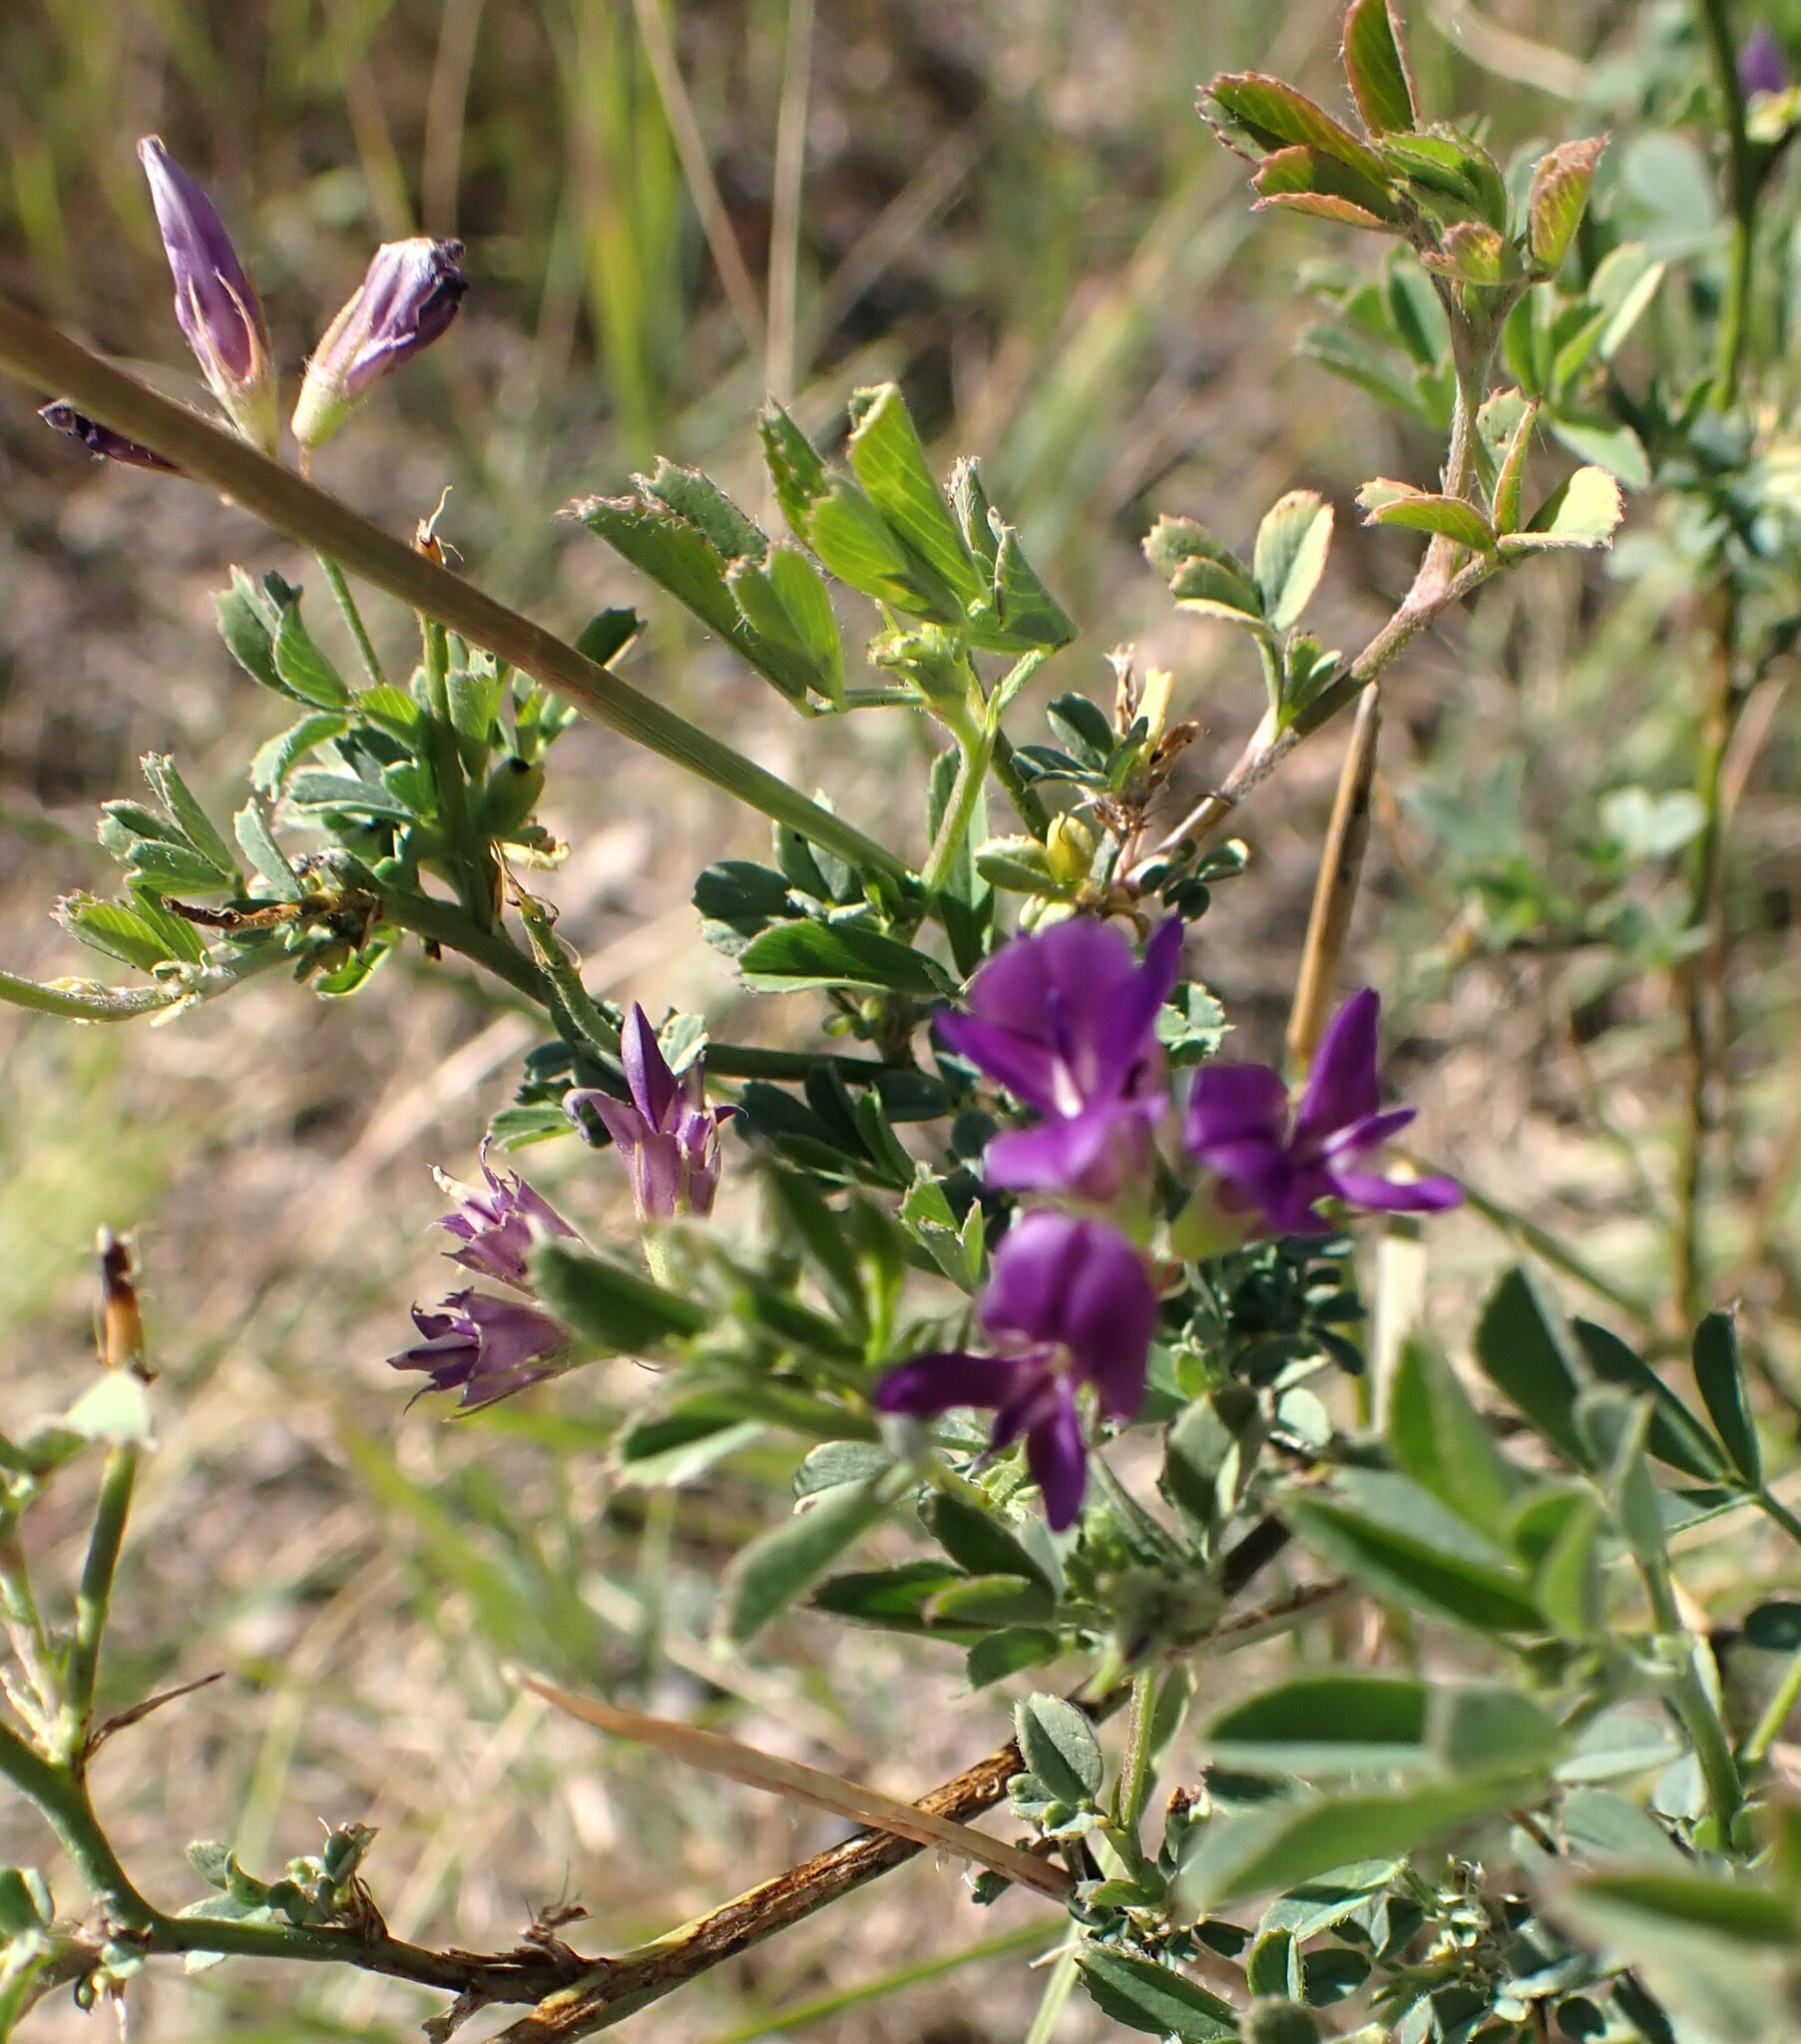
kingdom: Plantae
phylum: Tracheophyta
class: Magnoliopsida
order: Fabales
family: Fabaceae
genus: Medicago
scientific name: Medicago sativa
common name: Alfalfa
